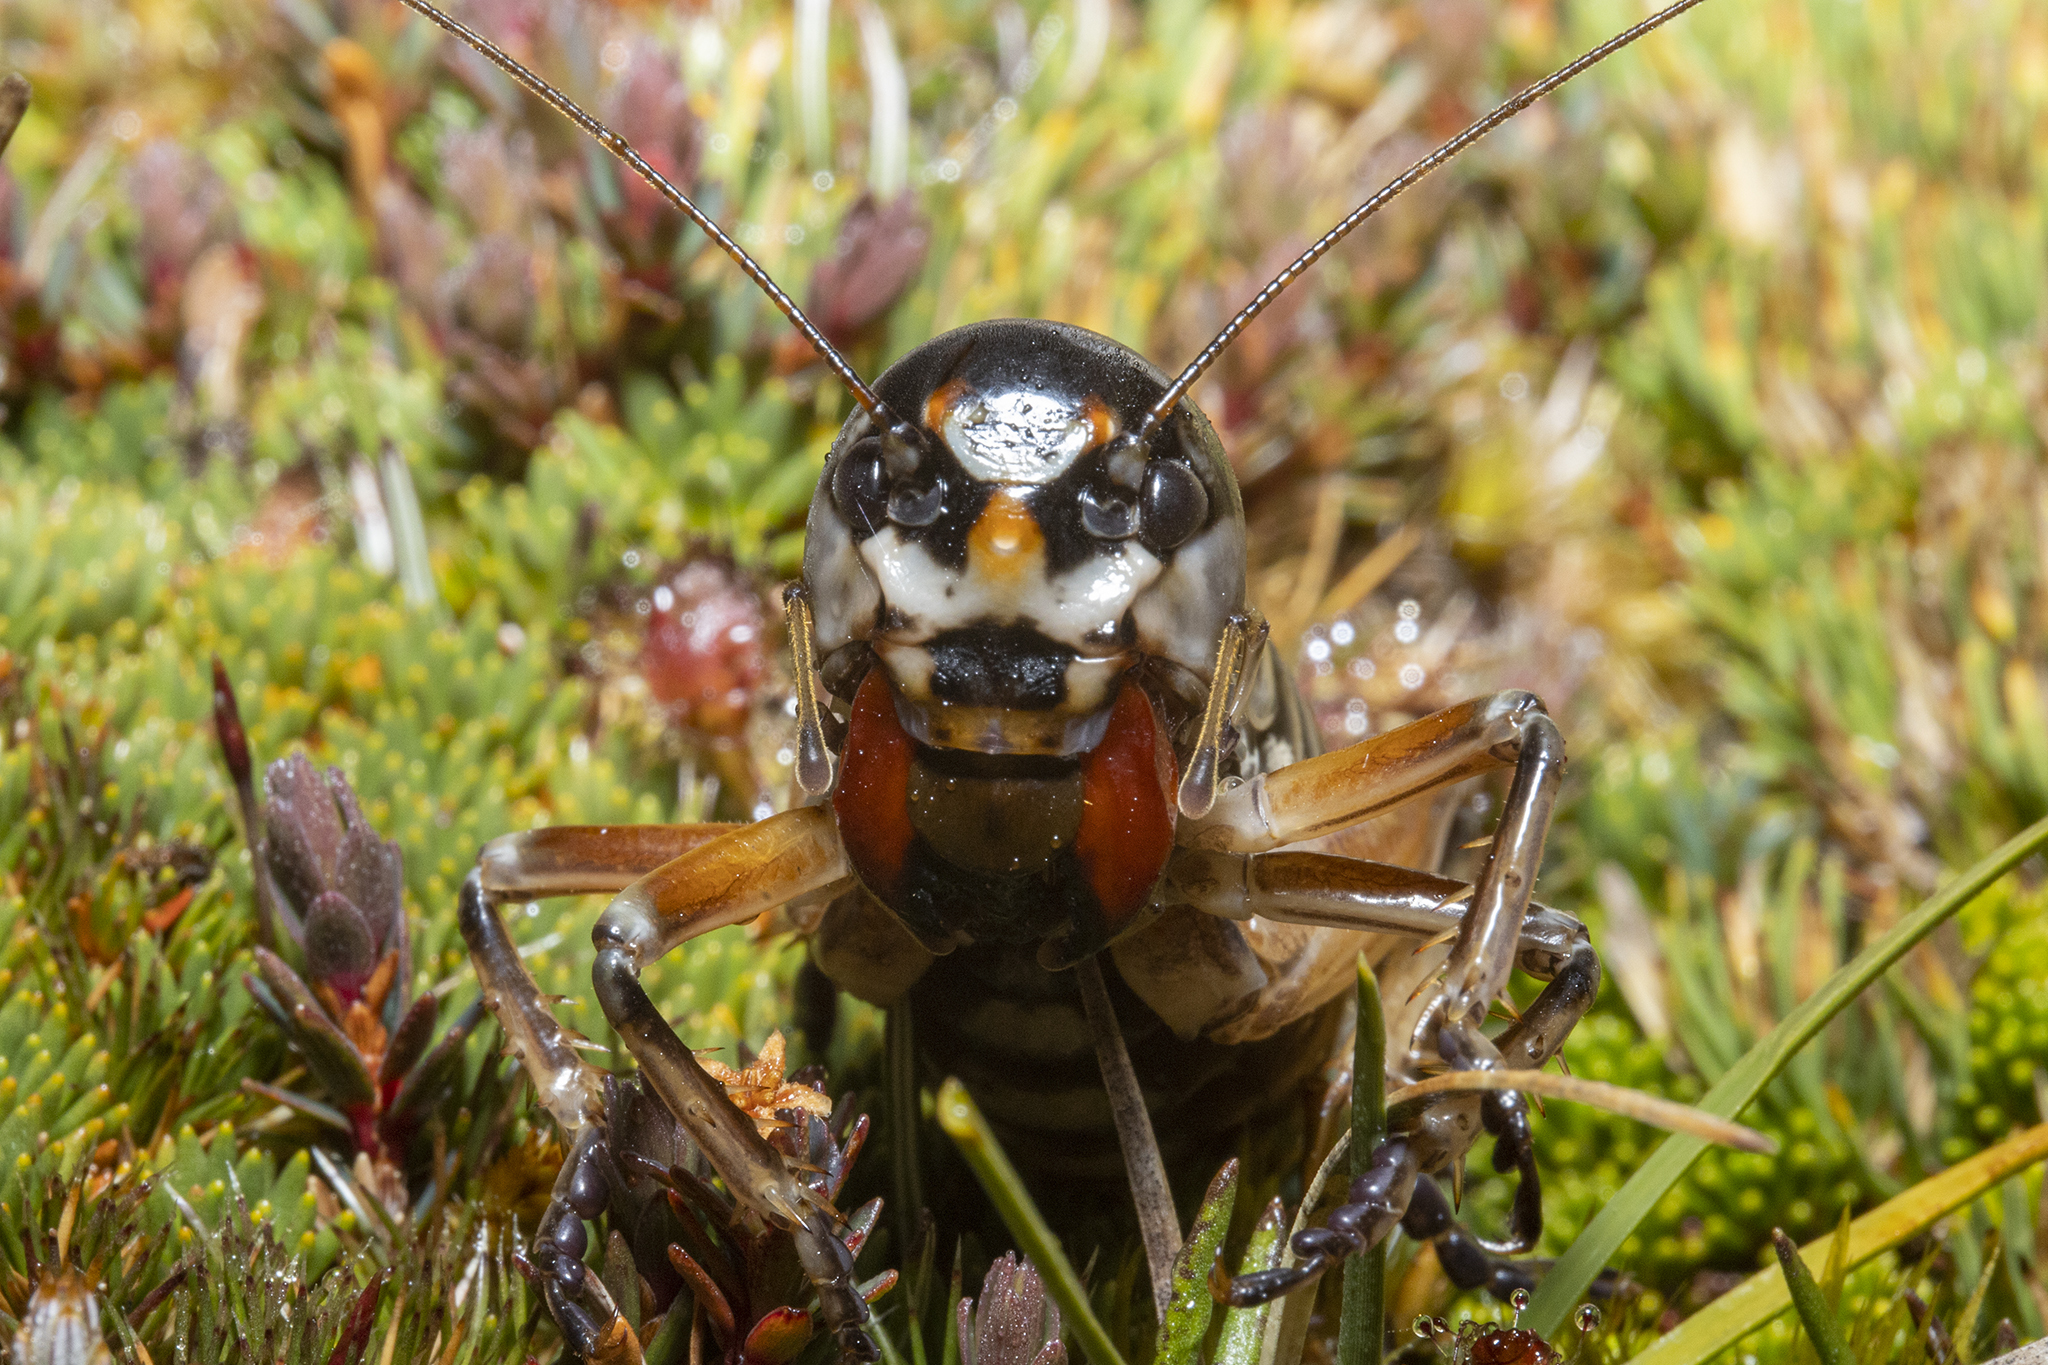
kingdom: Animalia
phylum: Arthropoda
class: Insecta
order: Orthoptera
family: Anostostomatidae
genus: Hemiandrus
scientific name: Hemiandrus focalis
